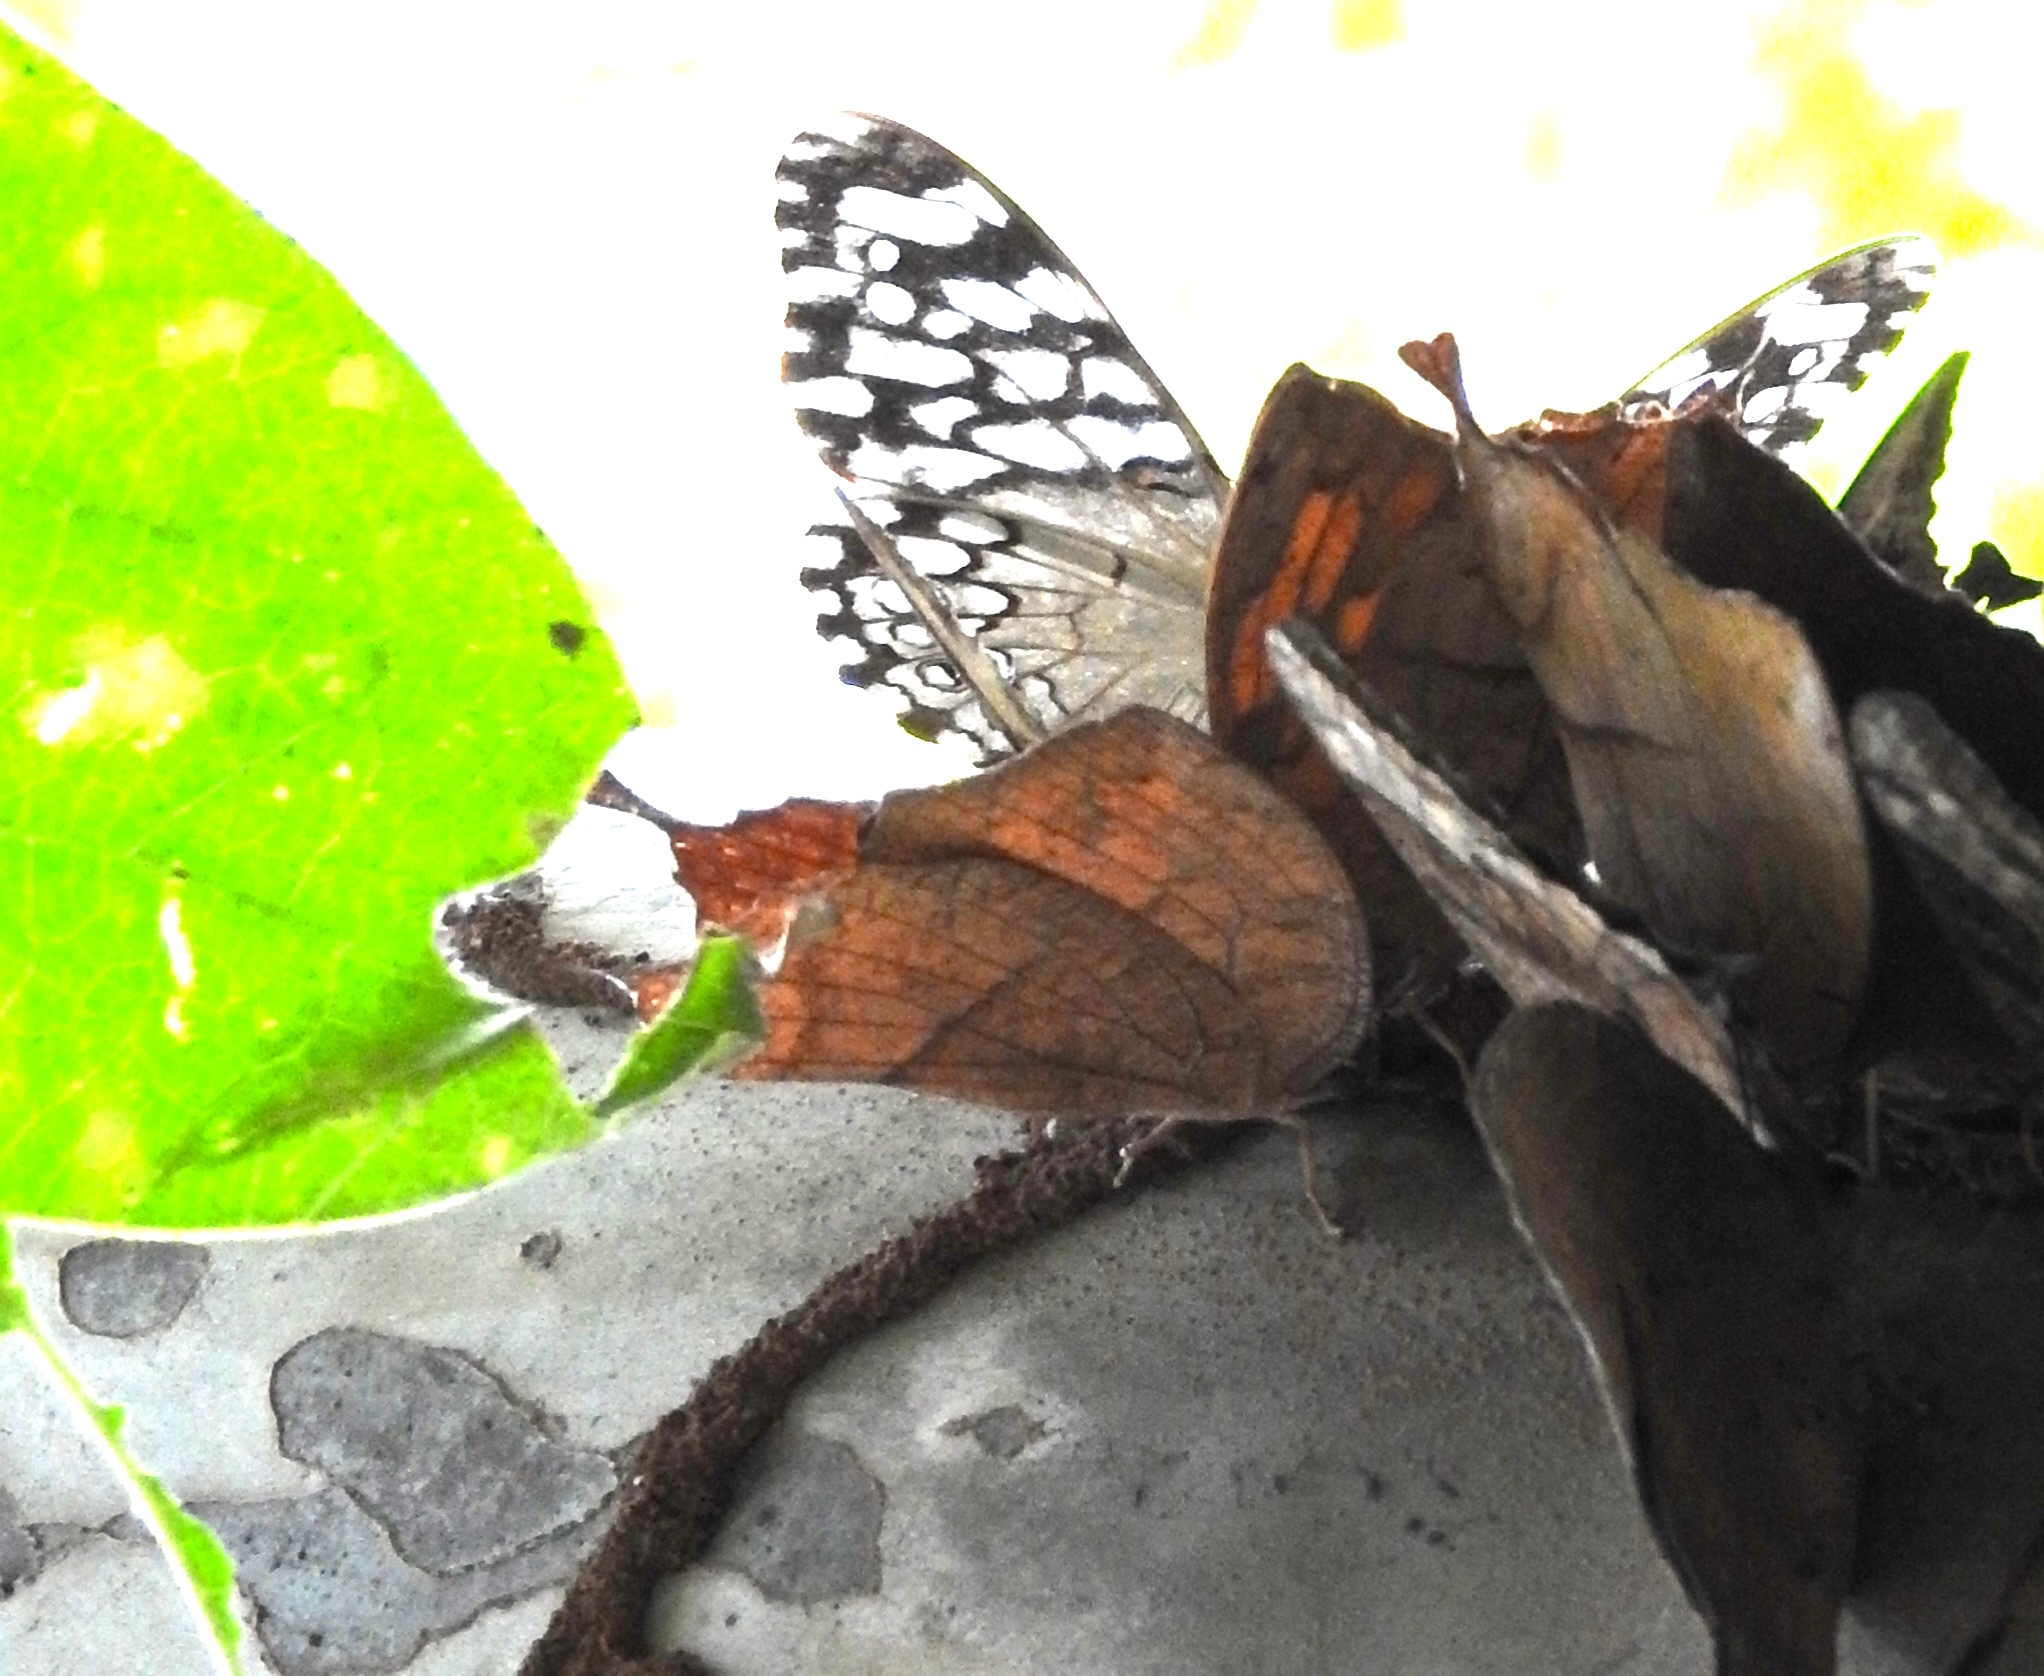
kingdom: Animalia
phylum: Arthropoda
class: Insecta
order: Lepidoptera
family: Nymphalidae
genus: Hamadryas
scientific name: Hamadryas februa
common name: Gray cracker
